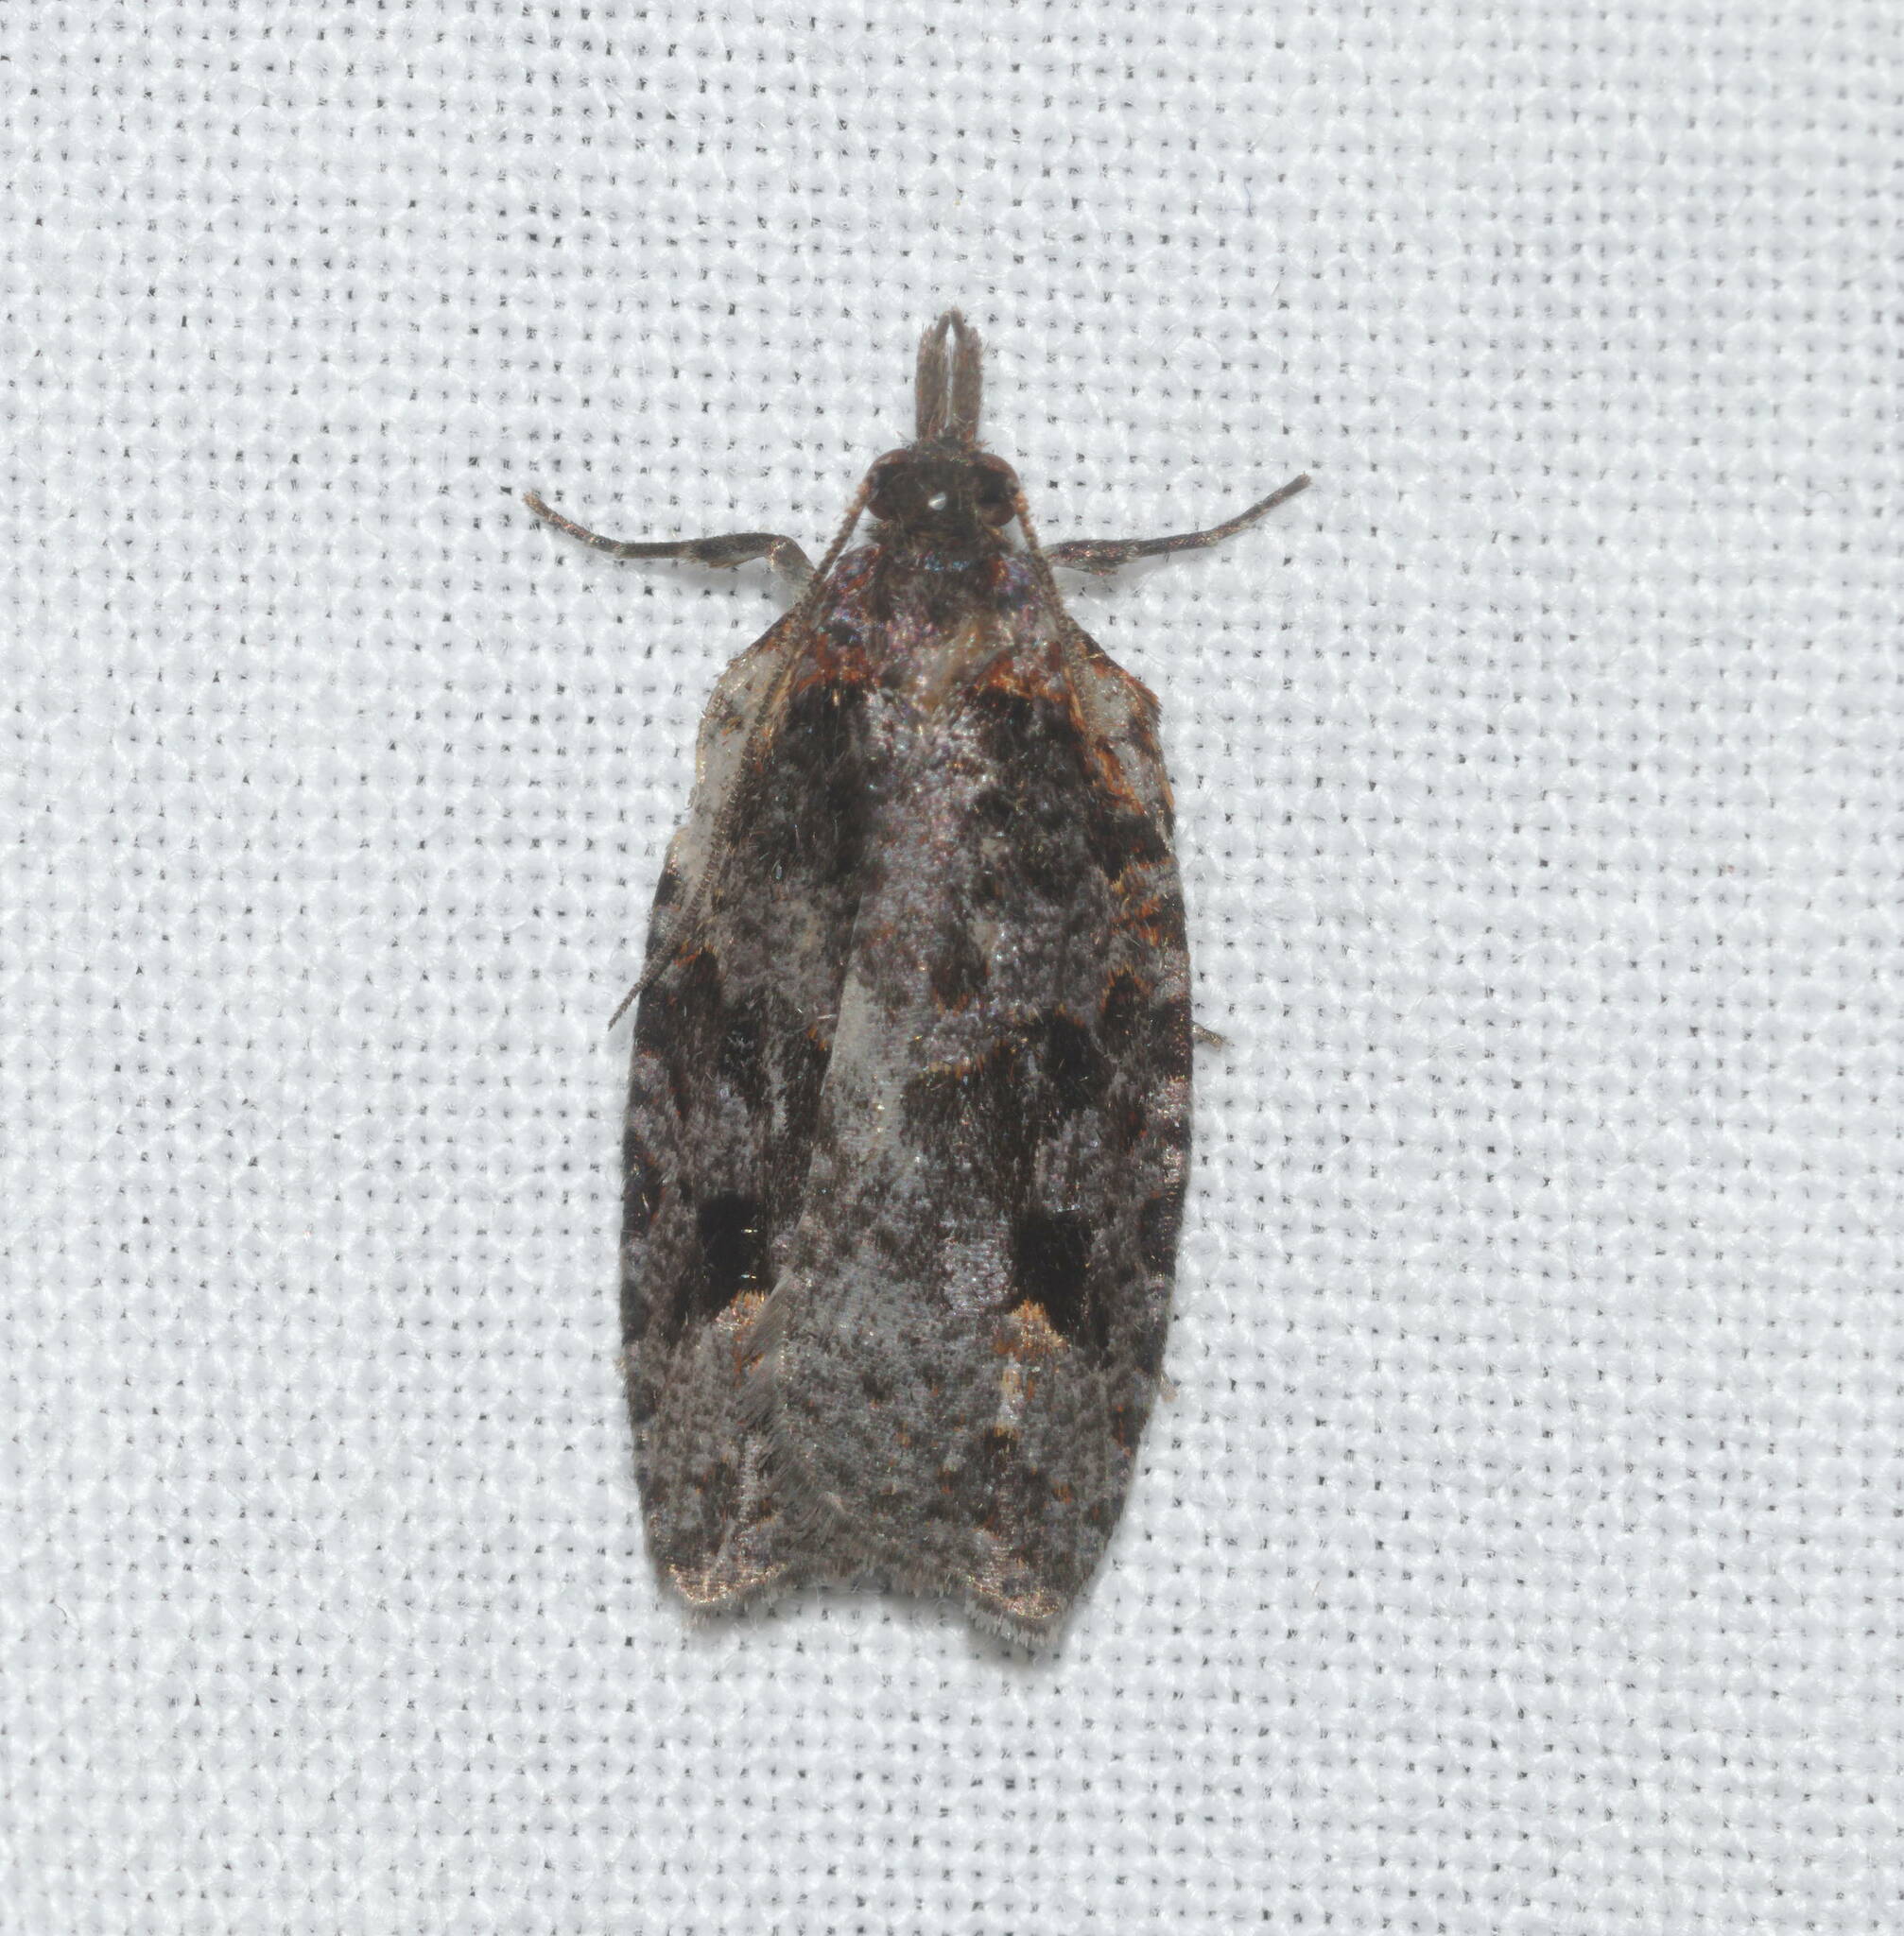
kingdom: Animalia
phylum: Arthropoda
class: Insecta
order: Lepidoptera
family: Tortricidae
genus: Pararrhaptica
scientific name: Pararrhaptica sublichenoides
